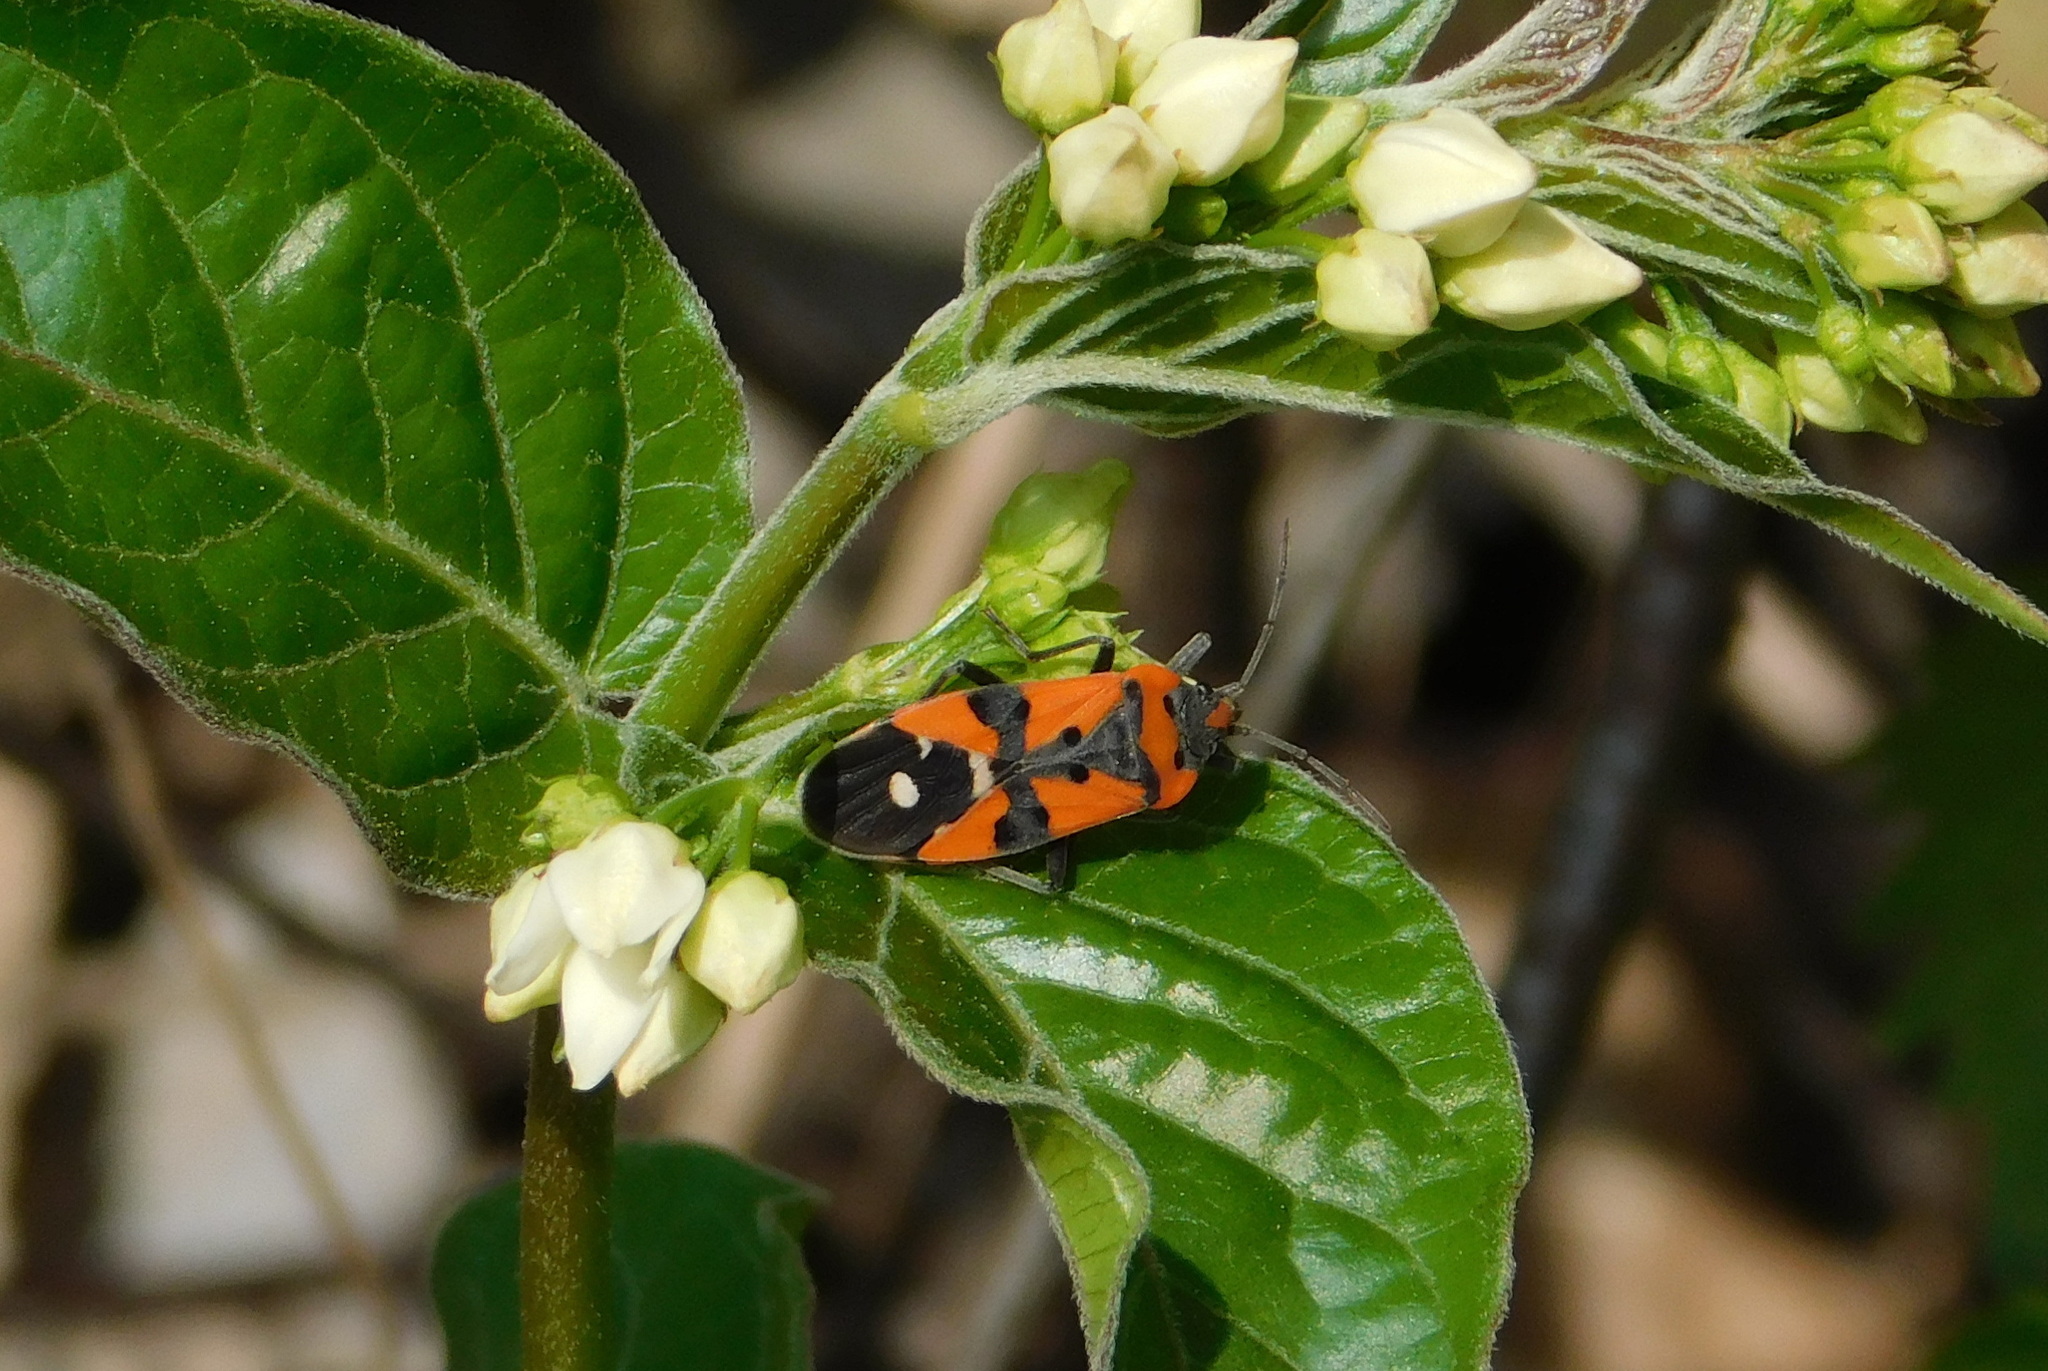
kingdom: Animalia
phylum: Arthropoda
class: Insecta
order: Hemiptera
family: Lygaeidae
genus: Lygaeus
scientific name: Lygaeus equestris
